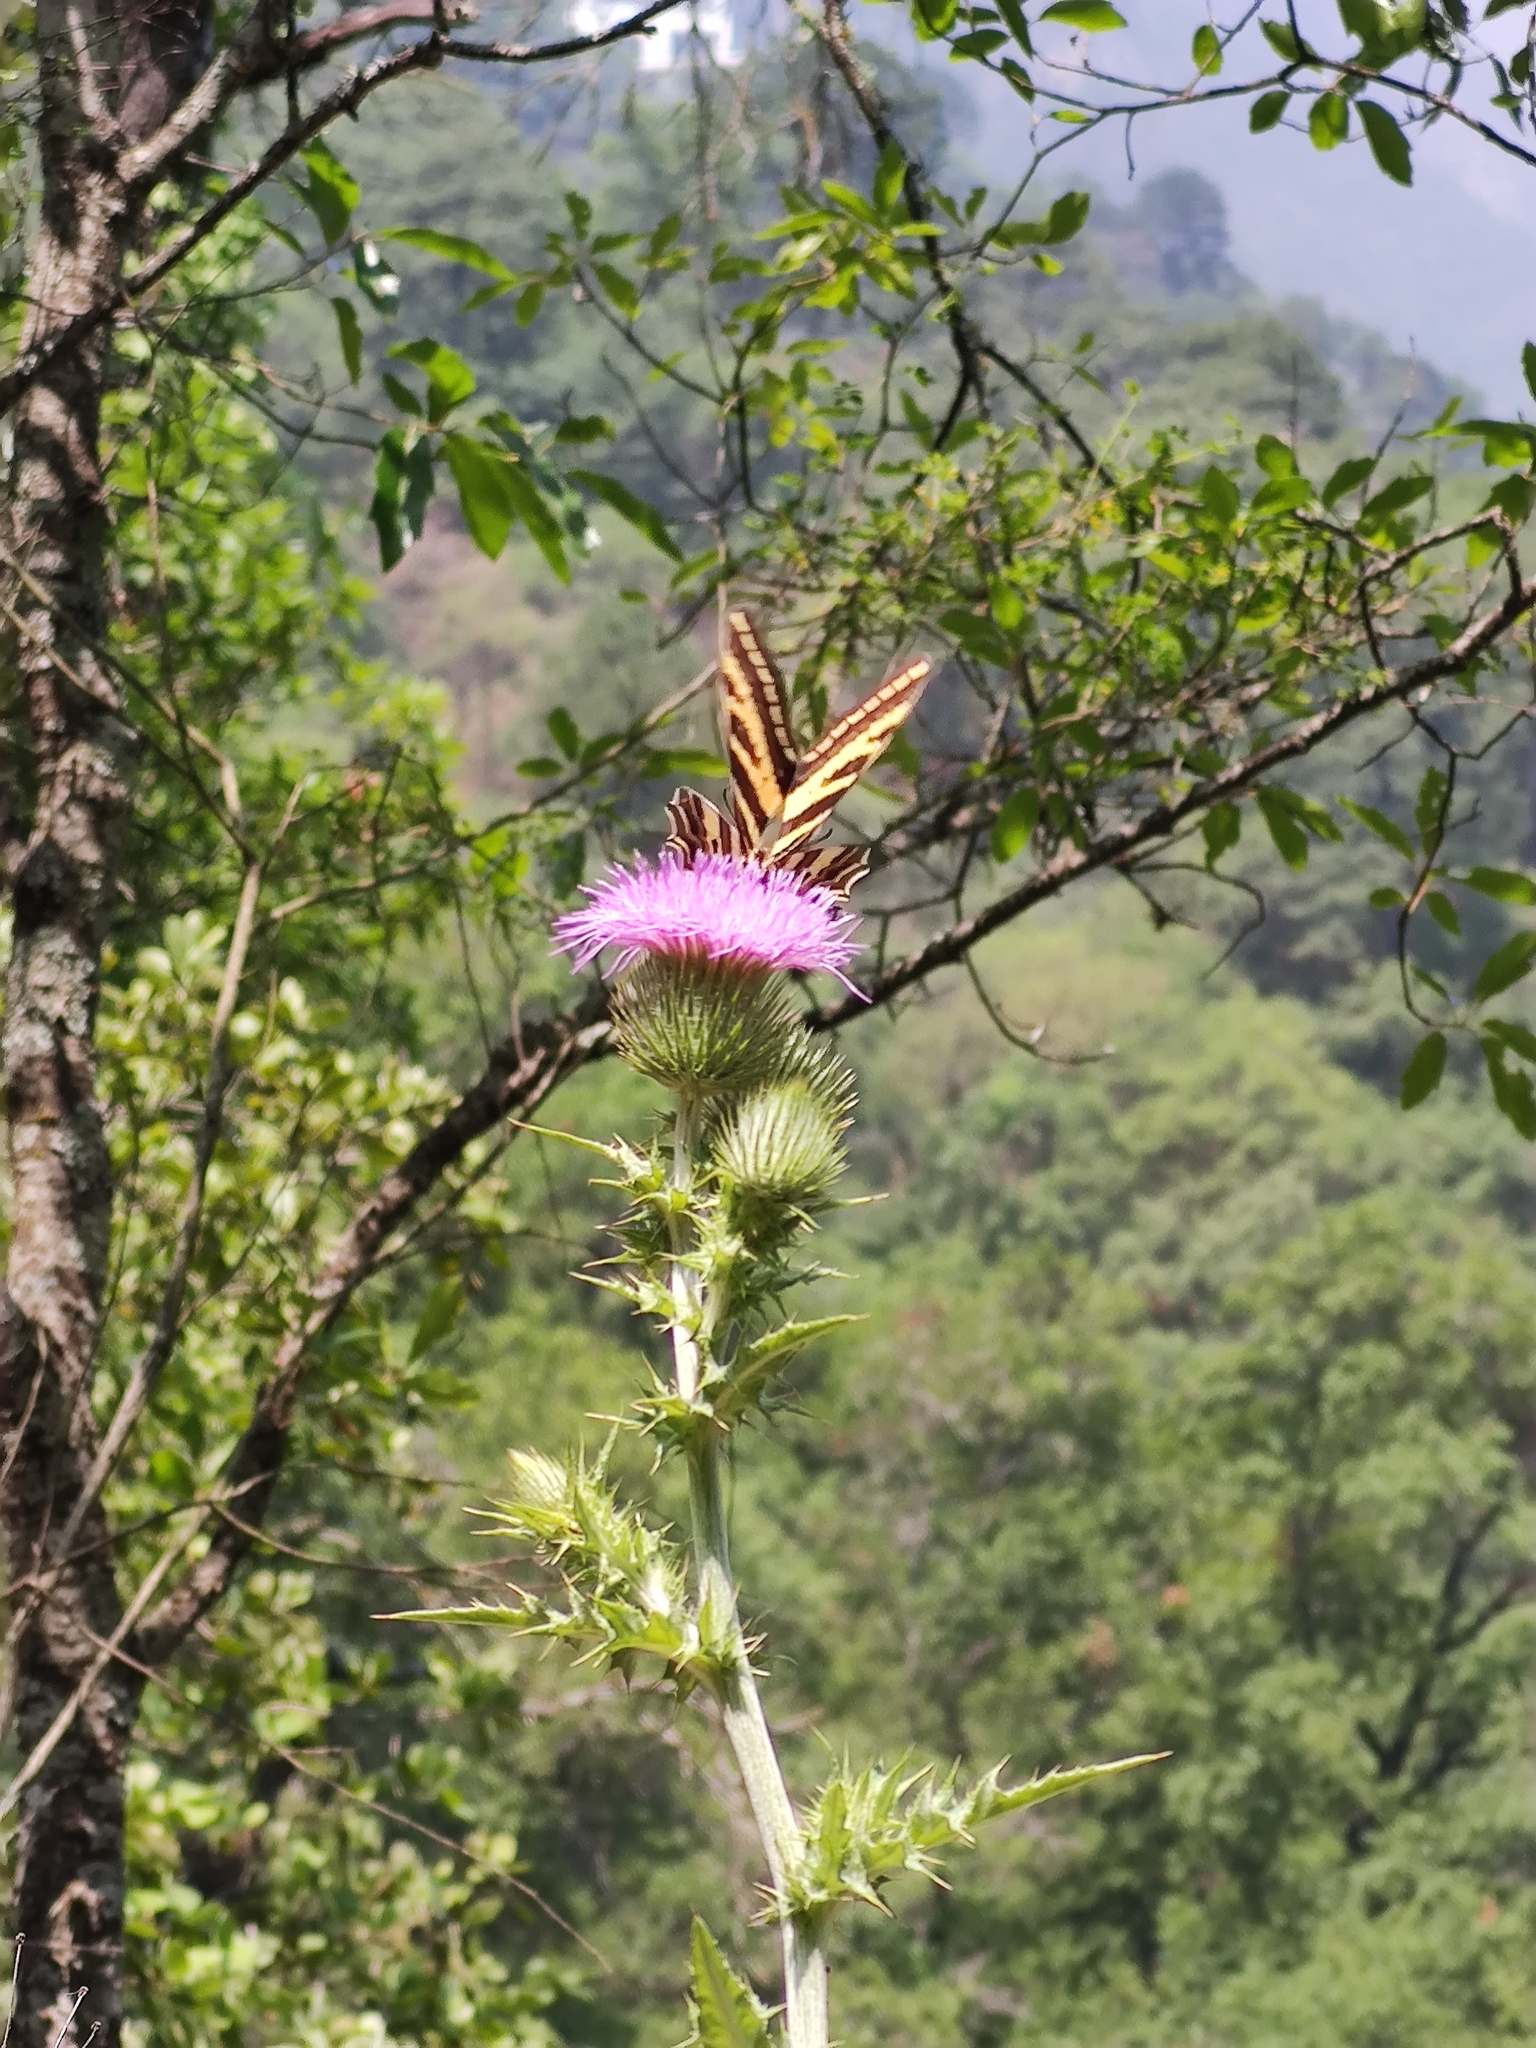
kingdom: Animalia
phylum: Arthropoda
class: Insecta
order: Lepidoptera
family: Papilionidae
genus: Papilio
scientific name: Papilio pilumnus
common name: Three-tailed tiger swallowtail
